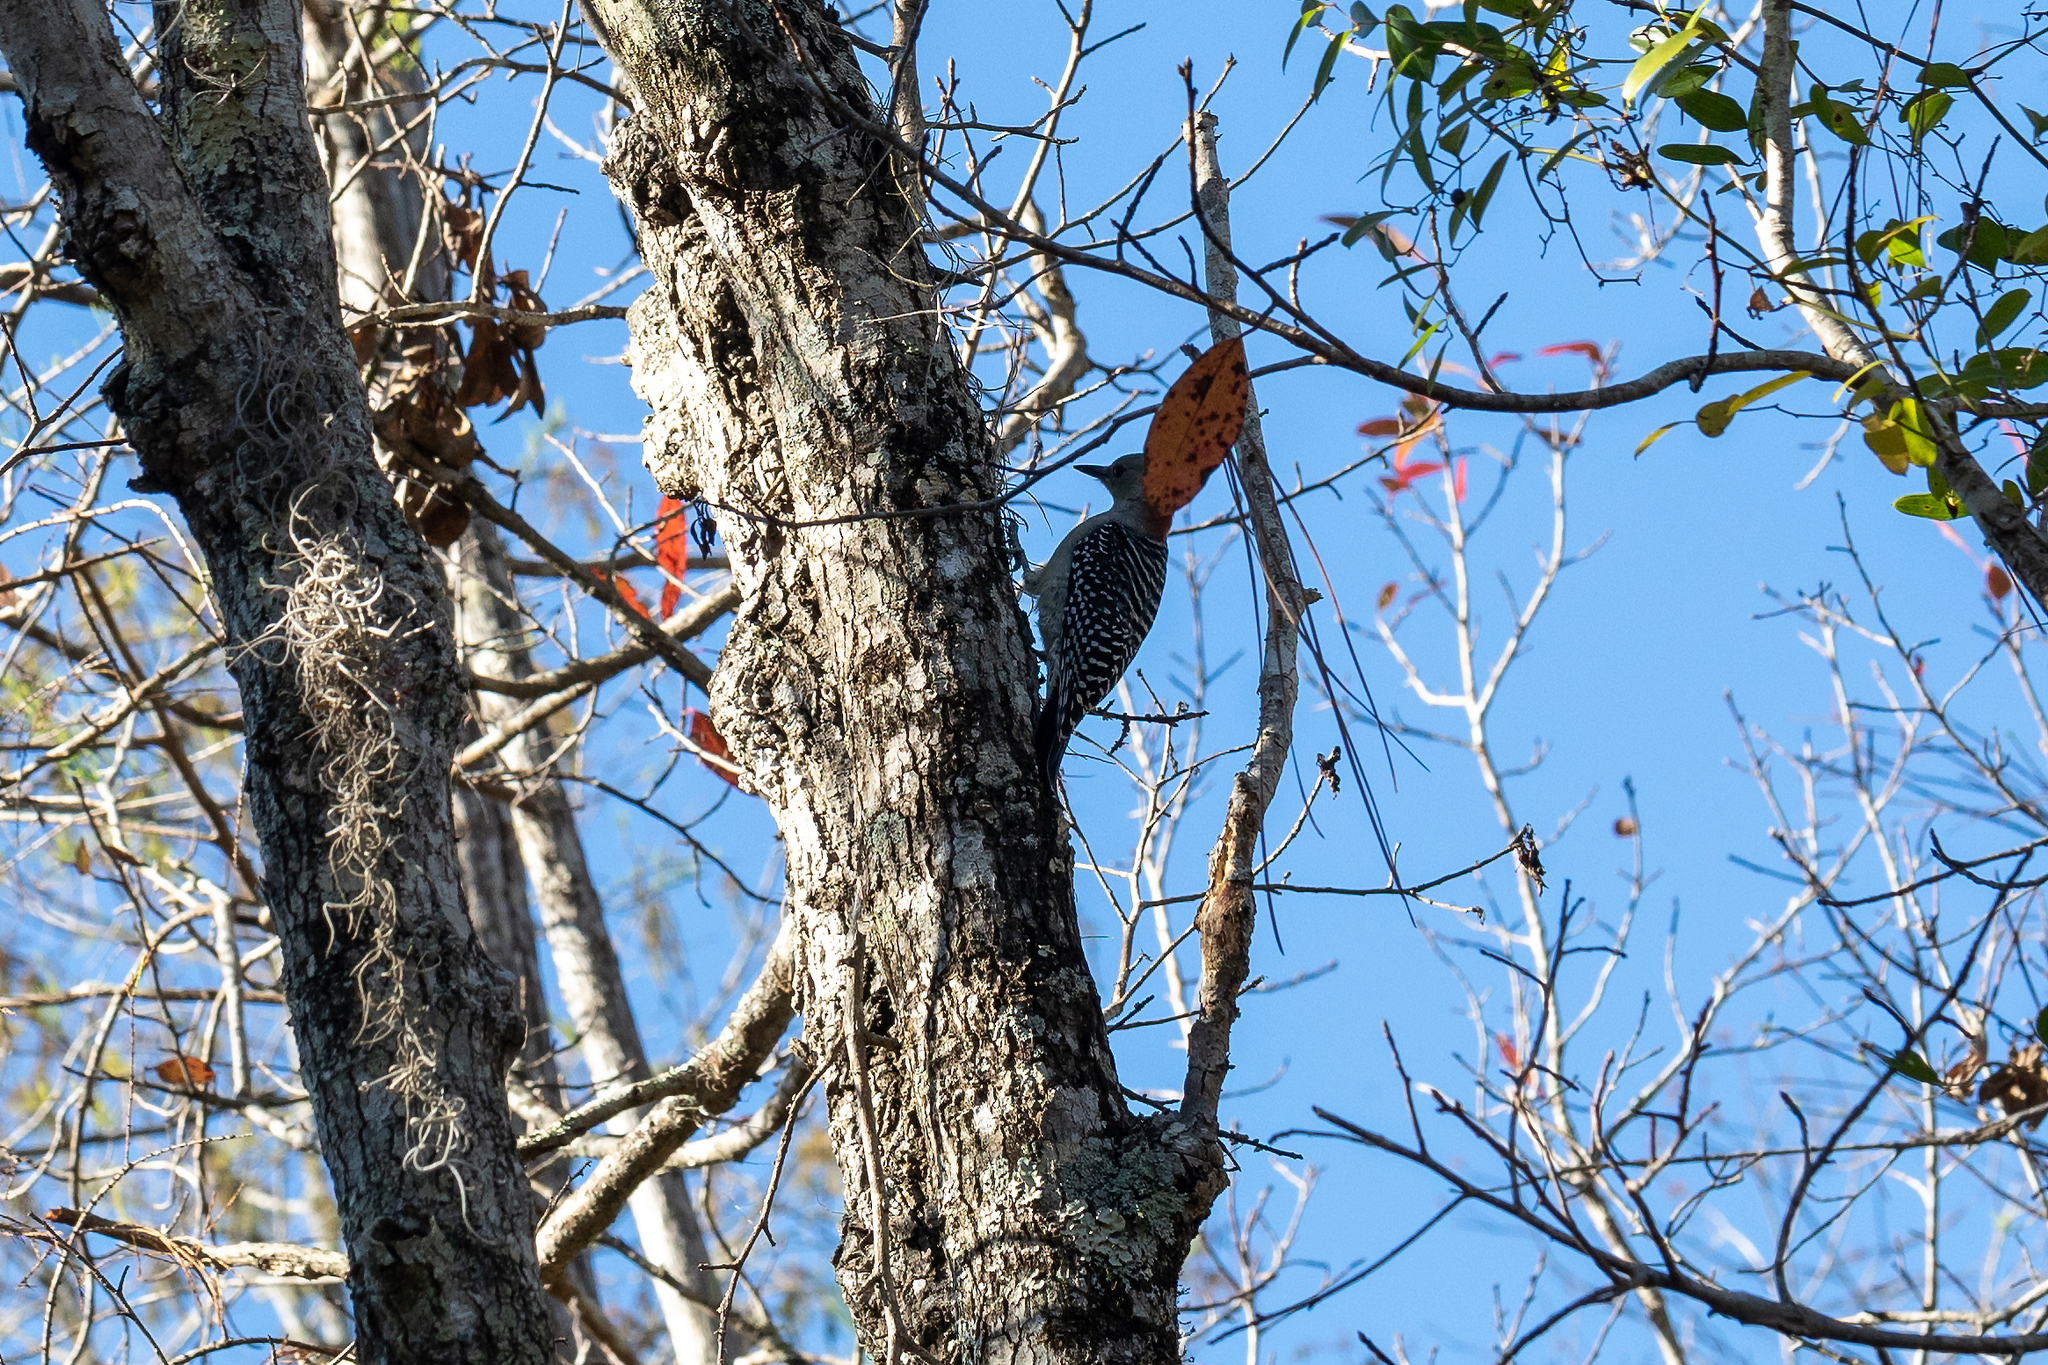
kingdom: Animalia
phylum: Chordata
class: Aves
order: Piciformes
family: Picidae
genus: Melanerpes
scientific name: Melanerpes carolinus
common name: Red-bellied woodpecker
